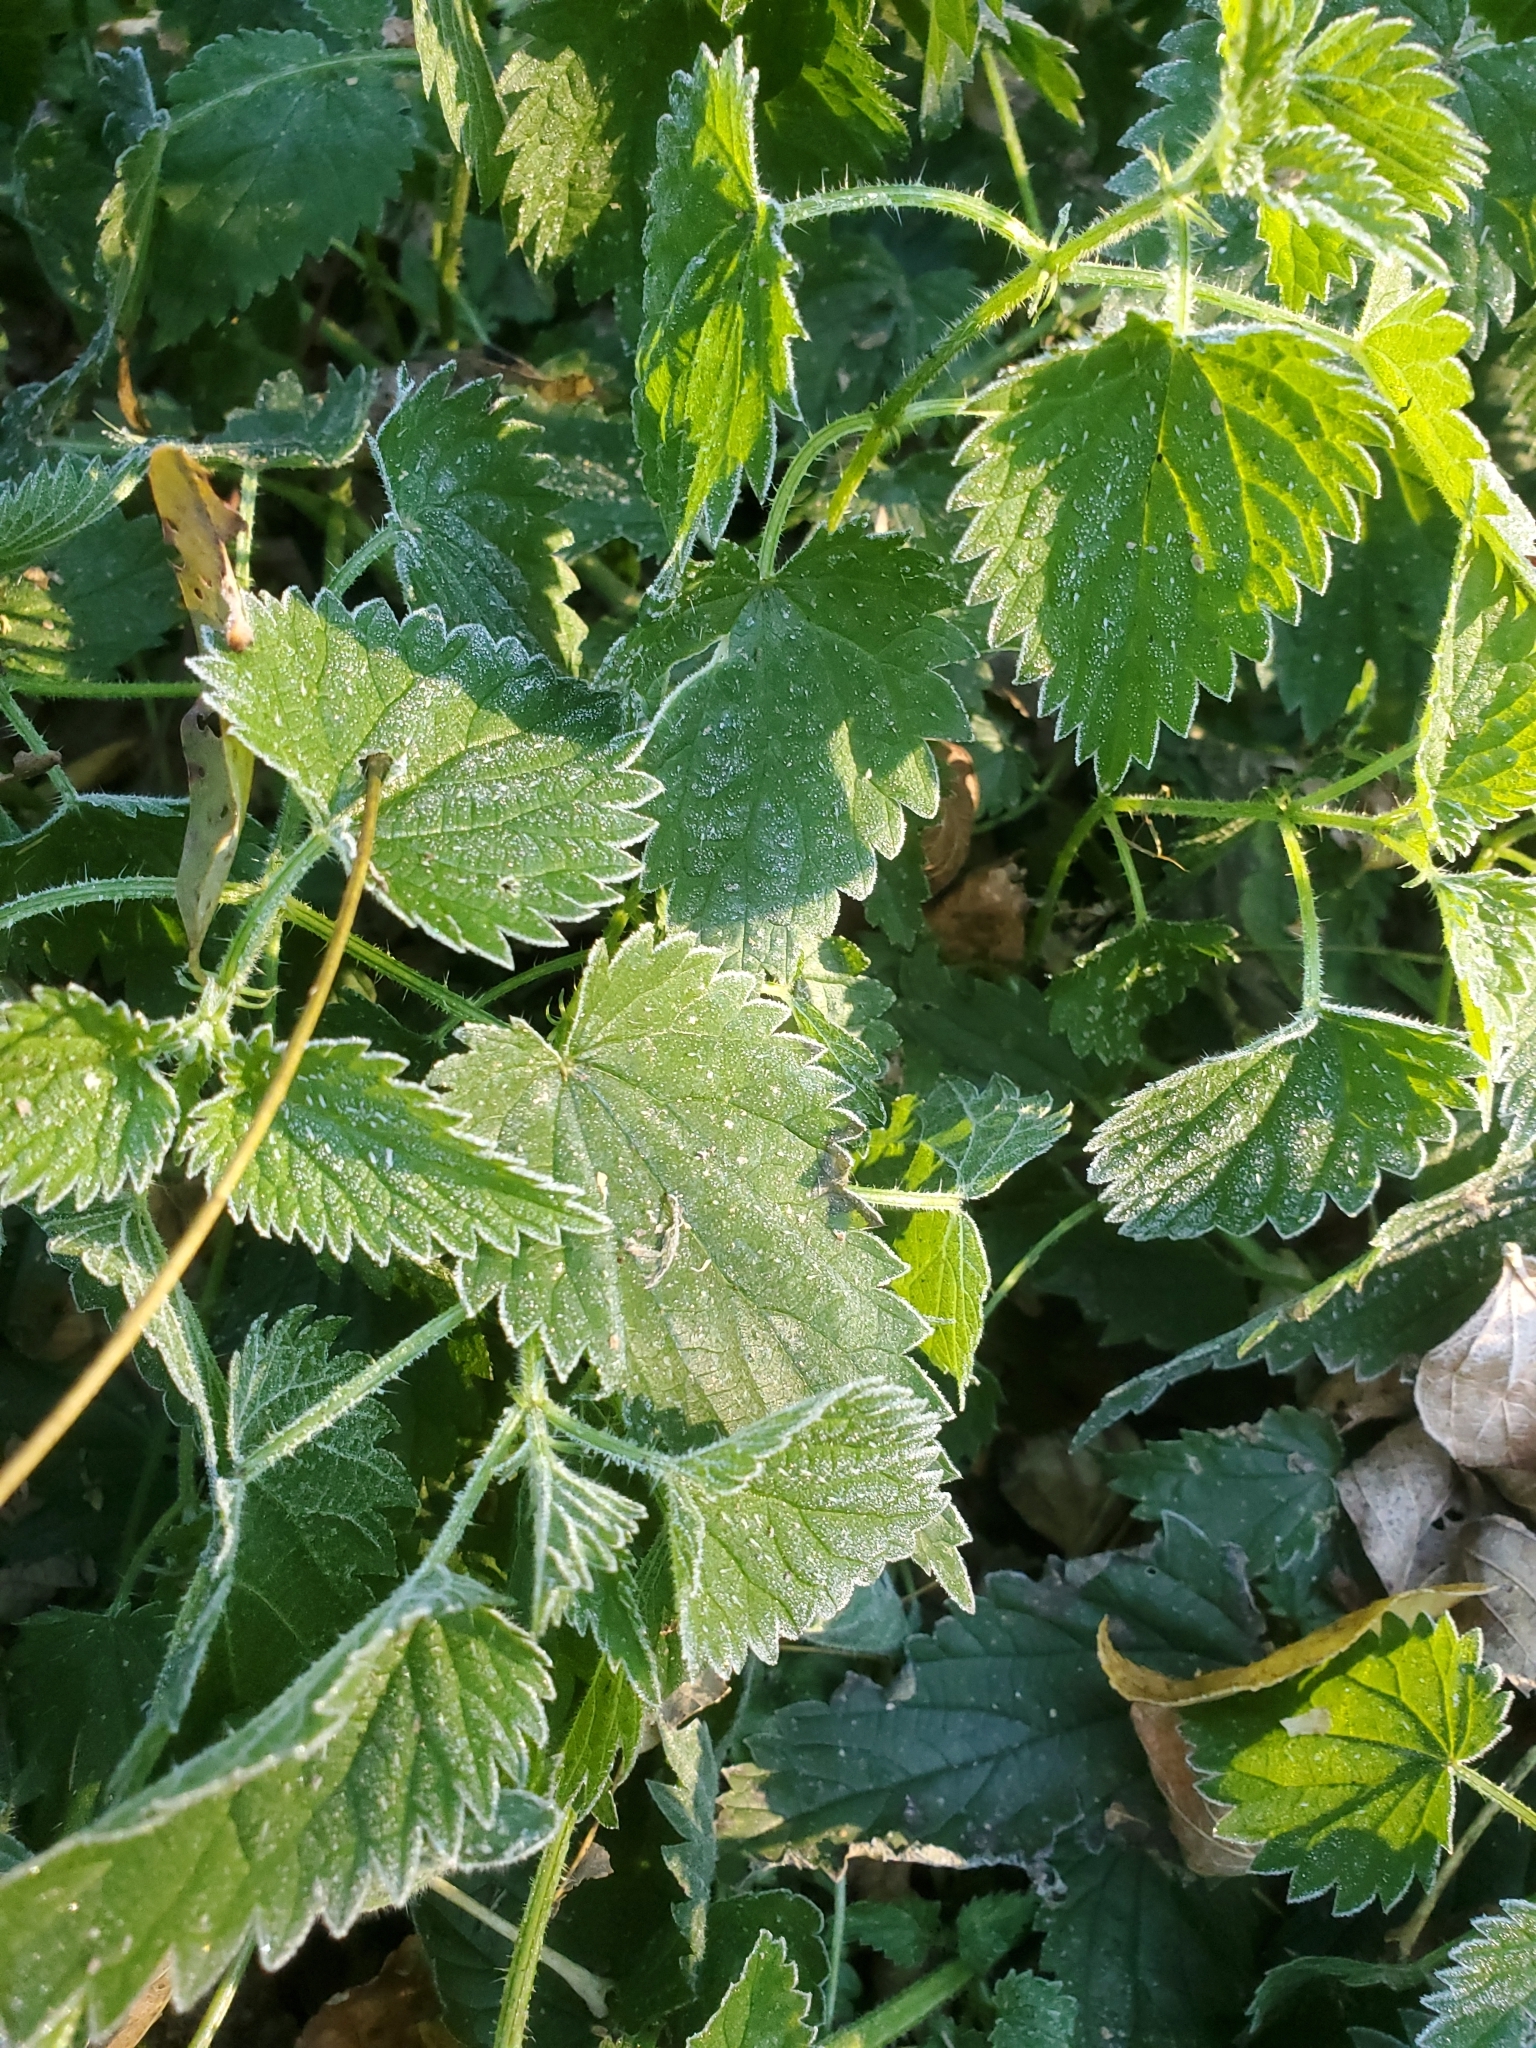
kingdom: Plantae
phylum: Tracheophyta
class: Magnoliopsida
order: Rosales
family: Urticaceae
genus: Urtica
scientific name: Urtica dioica
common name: Common nettle
